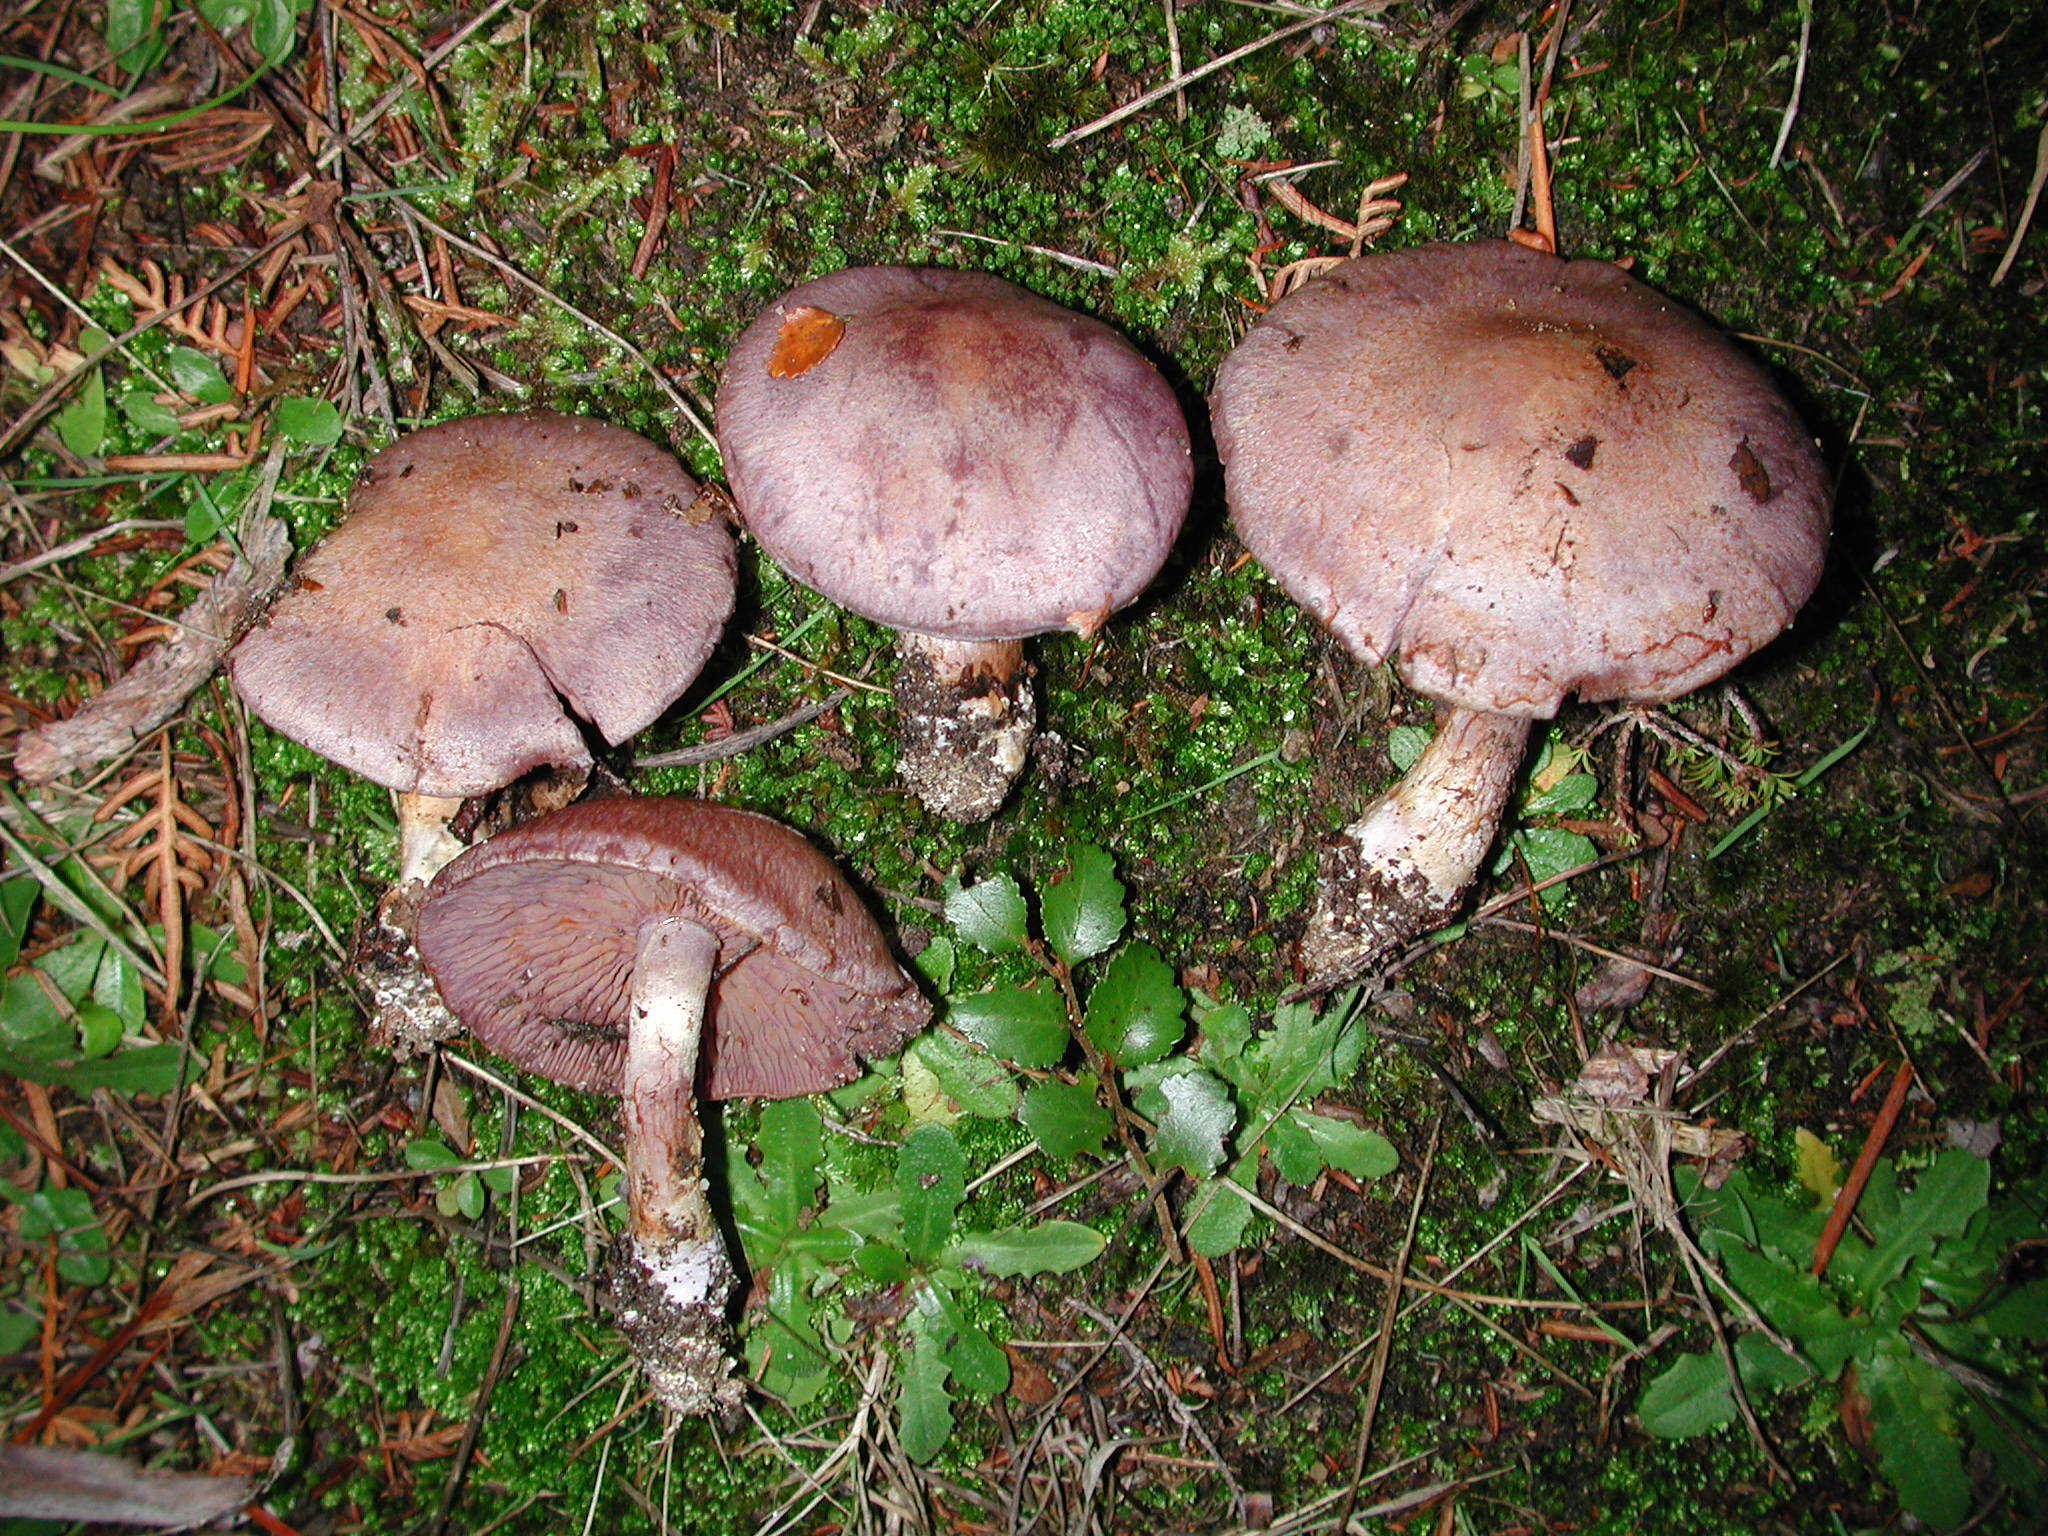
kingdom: Fungi
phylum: Basidiomycota
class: Agaricomycetes
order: Agaricales
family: Cortinariaceae
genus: Cortinarius
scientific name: Cortinarius ionomataius
